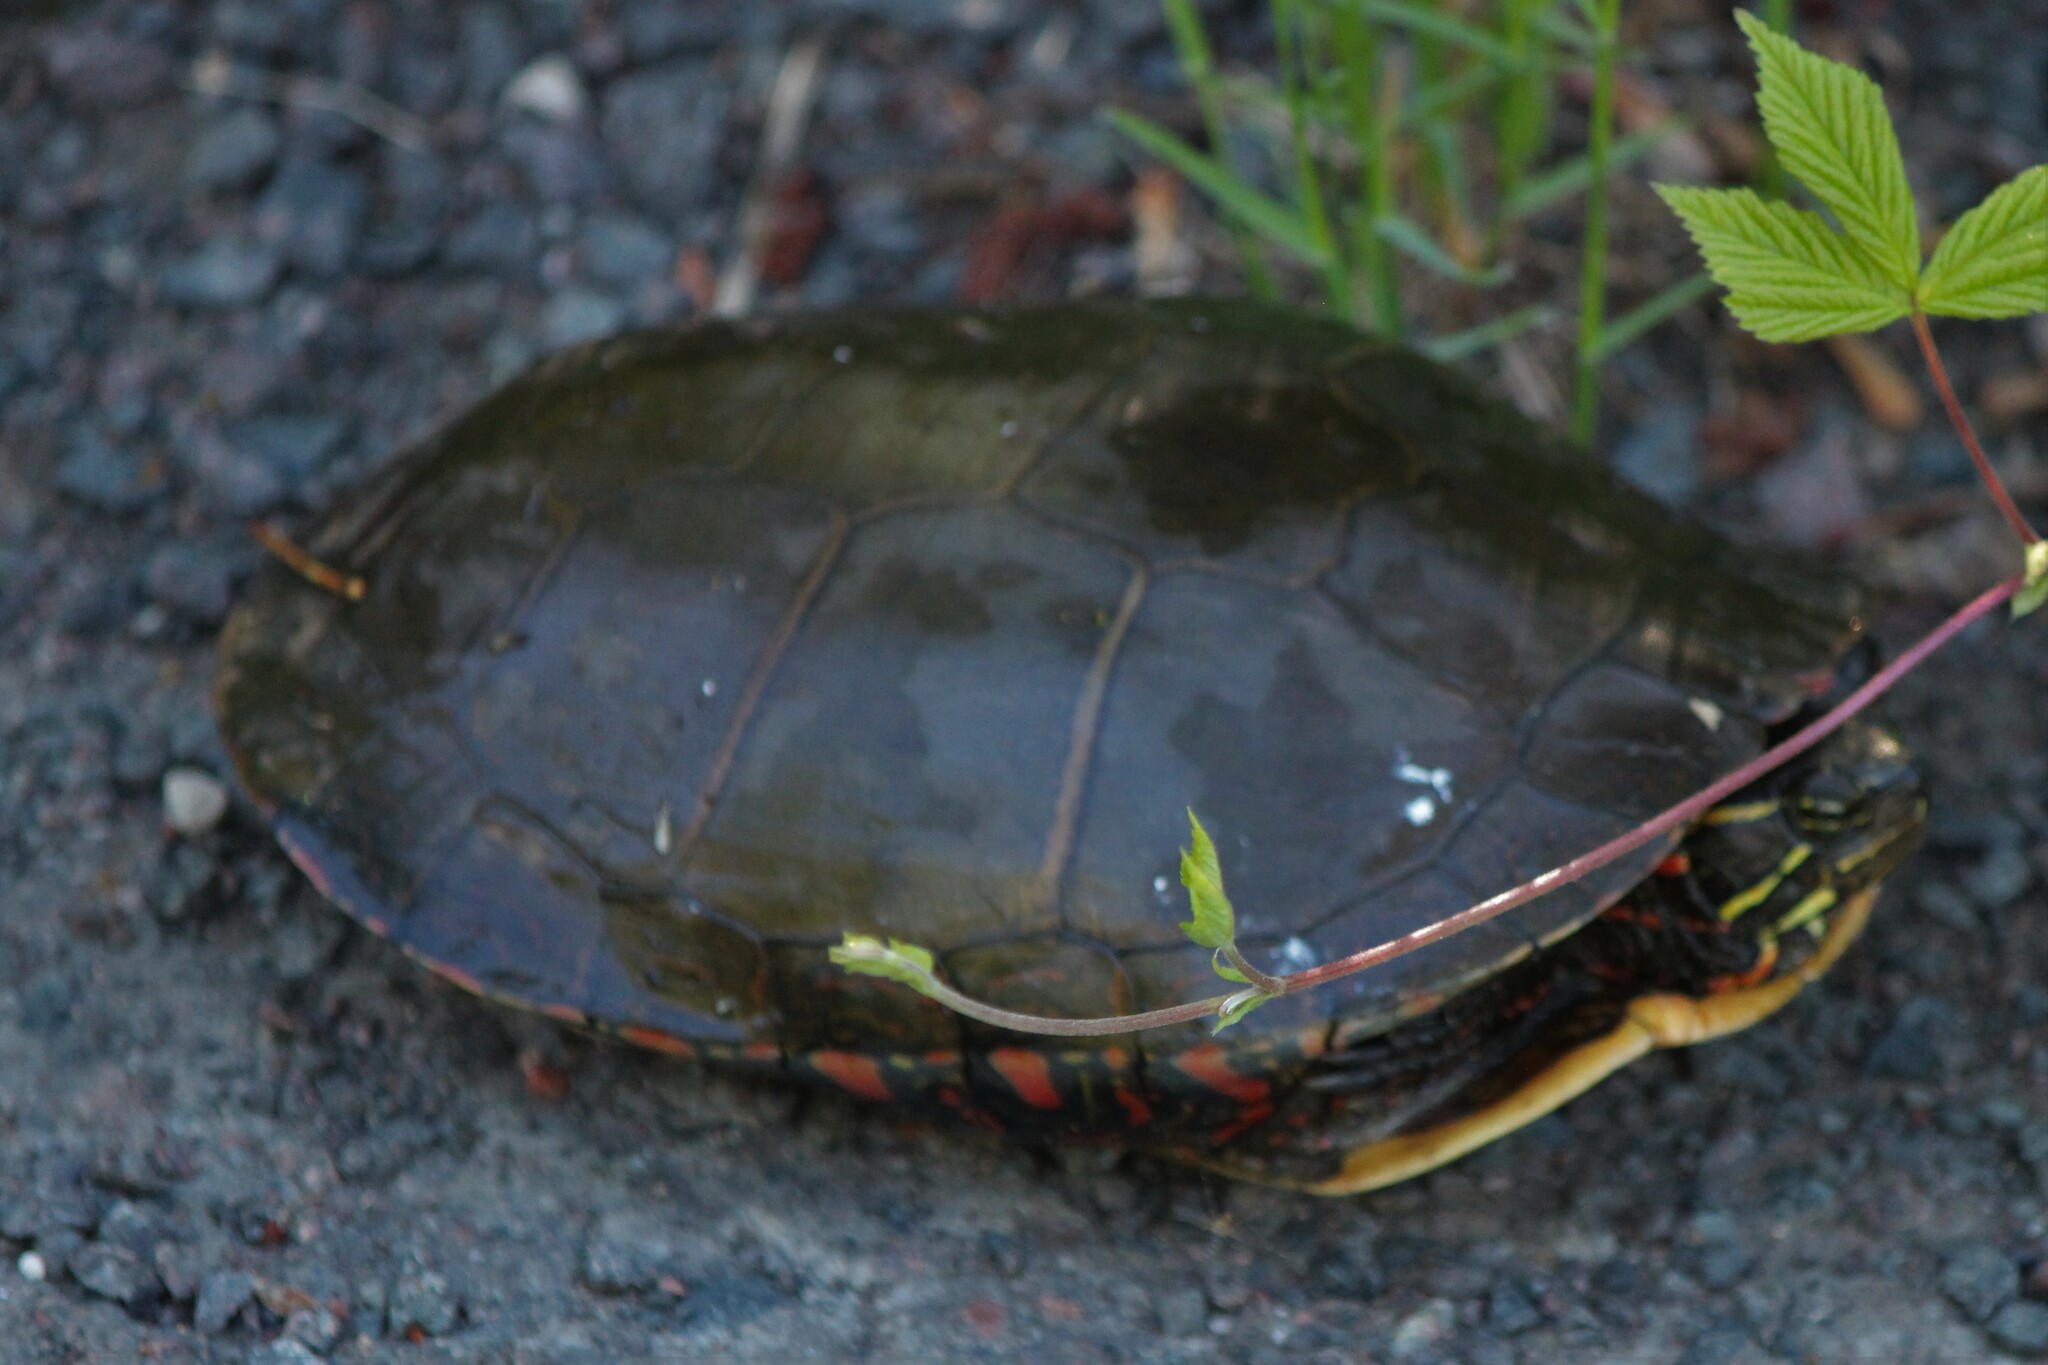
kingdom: Animalia
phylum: Chordata
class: Testudines
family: Emydidae
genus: Chrysemys
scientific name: Chrysemys picta
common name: Painted turtle
